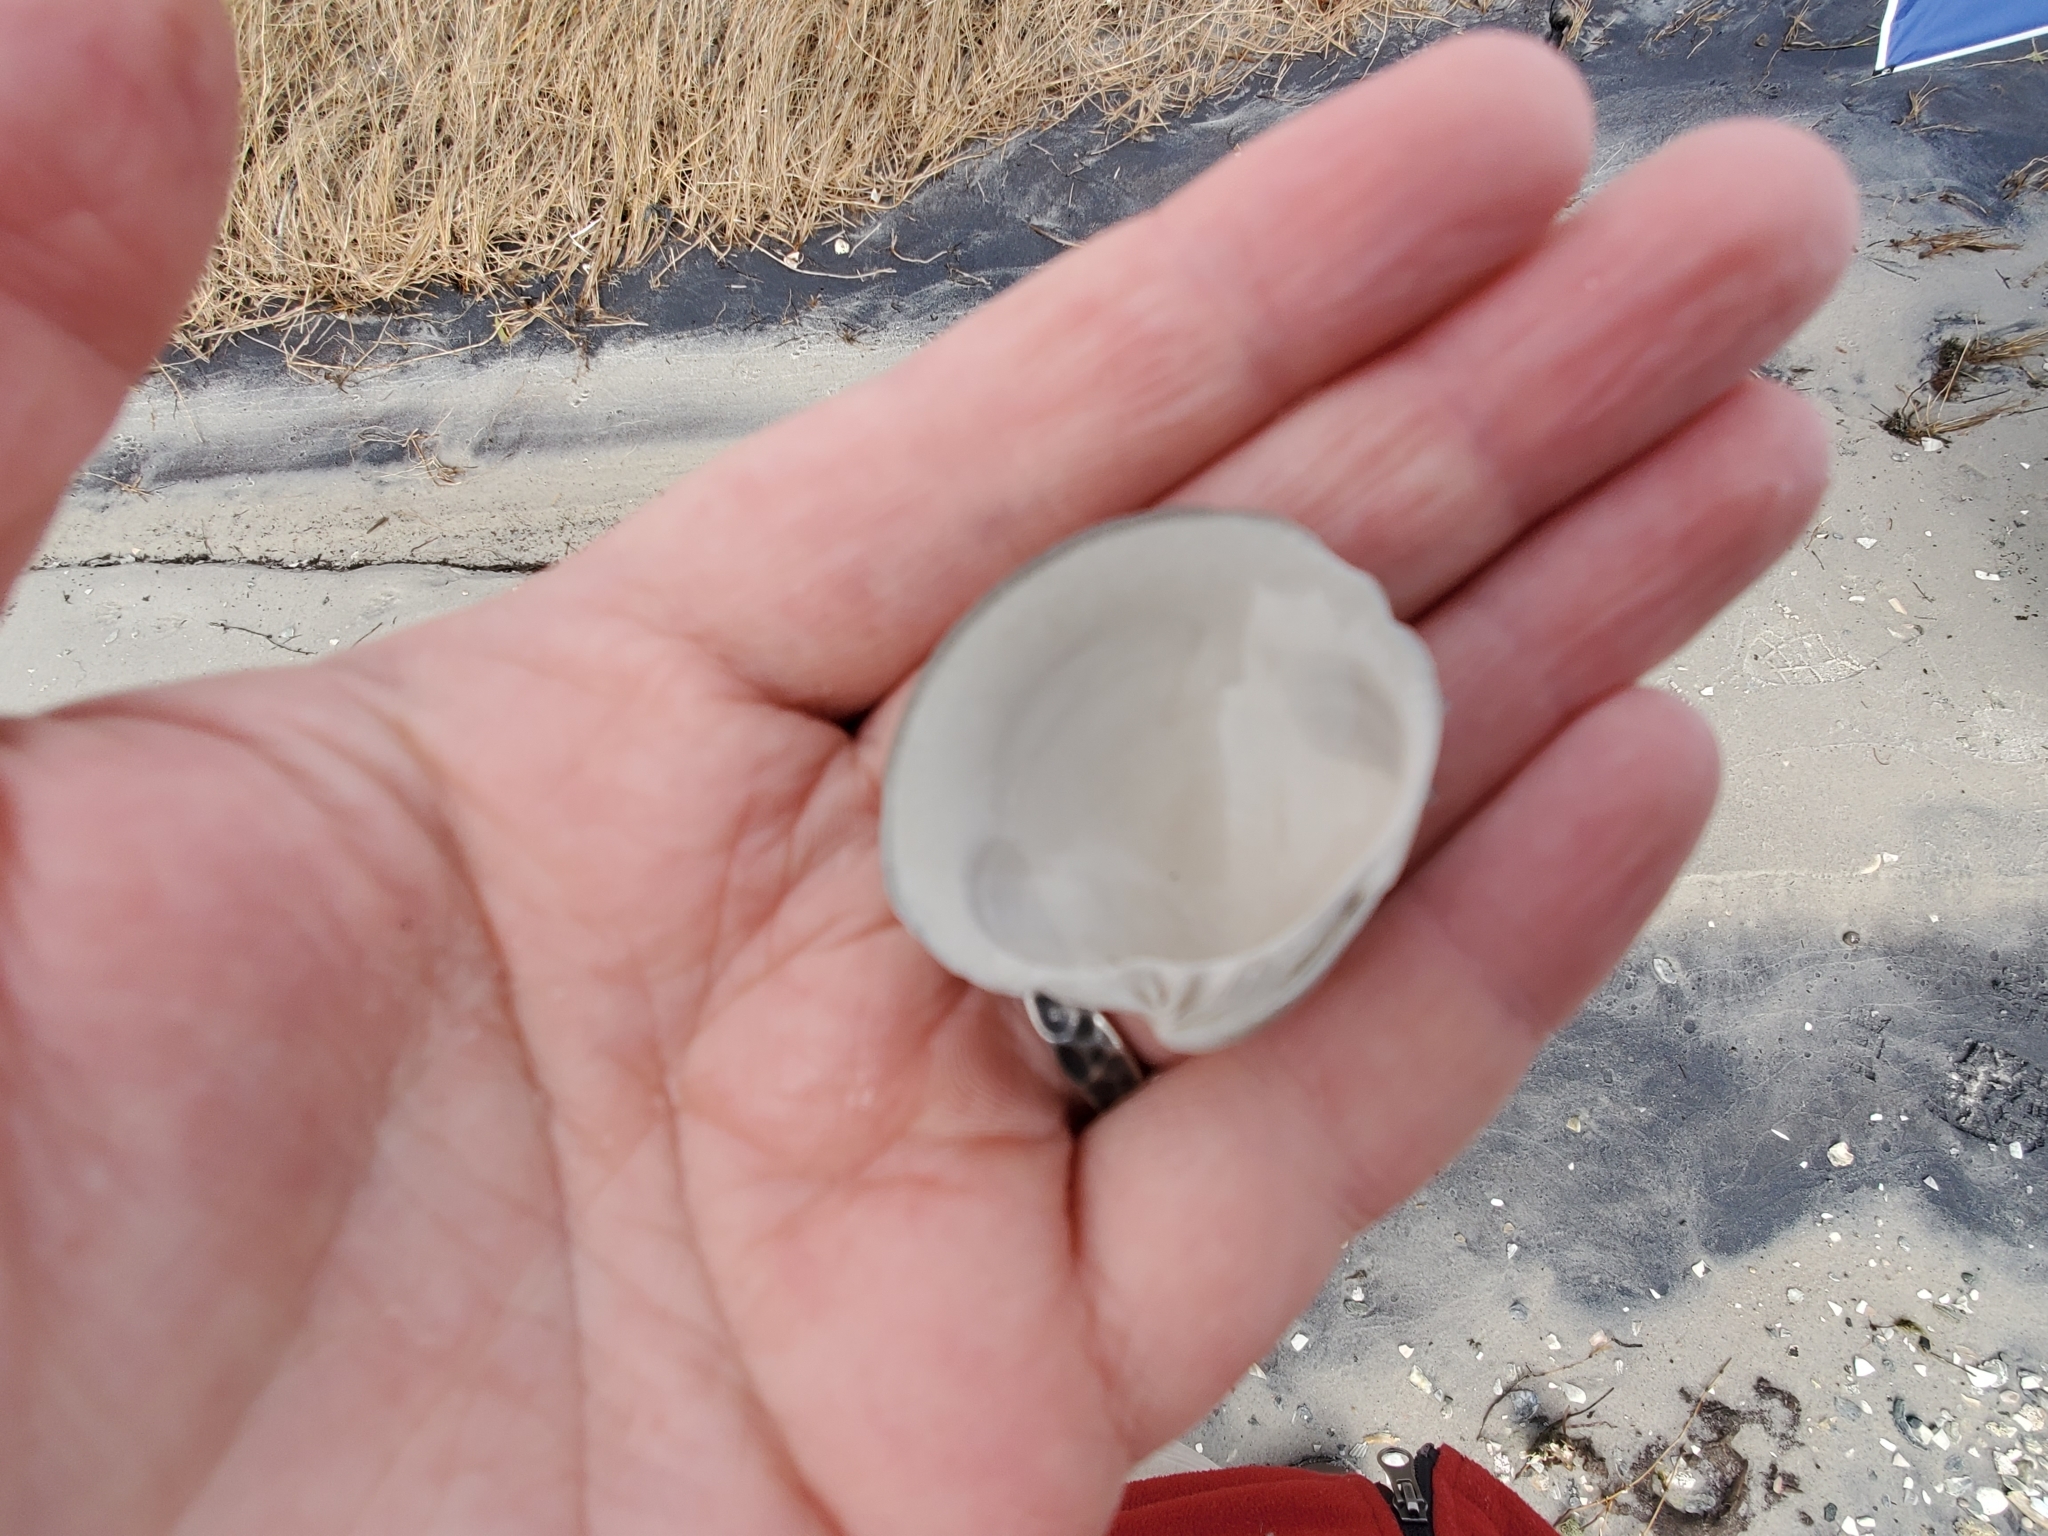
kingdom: Animalia
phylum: Mollusca
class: Bivalvia
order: Venerida
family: Veneridae
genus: Mercenaria
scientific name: Mercenaria mercenaria
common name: American hard-shelled clam
